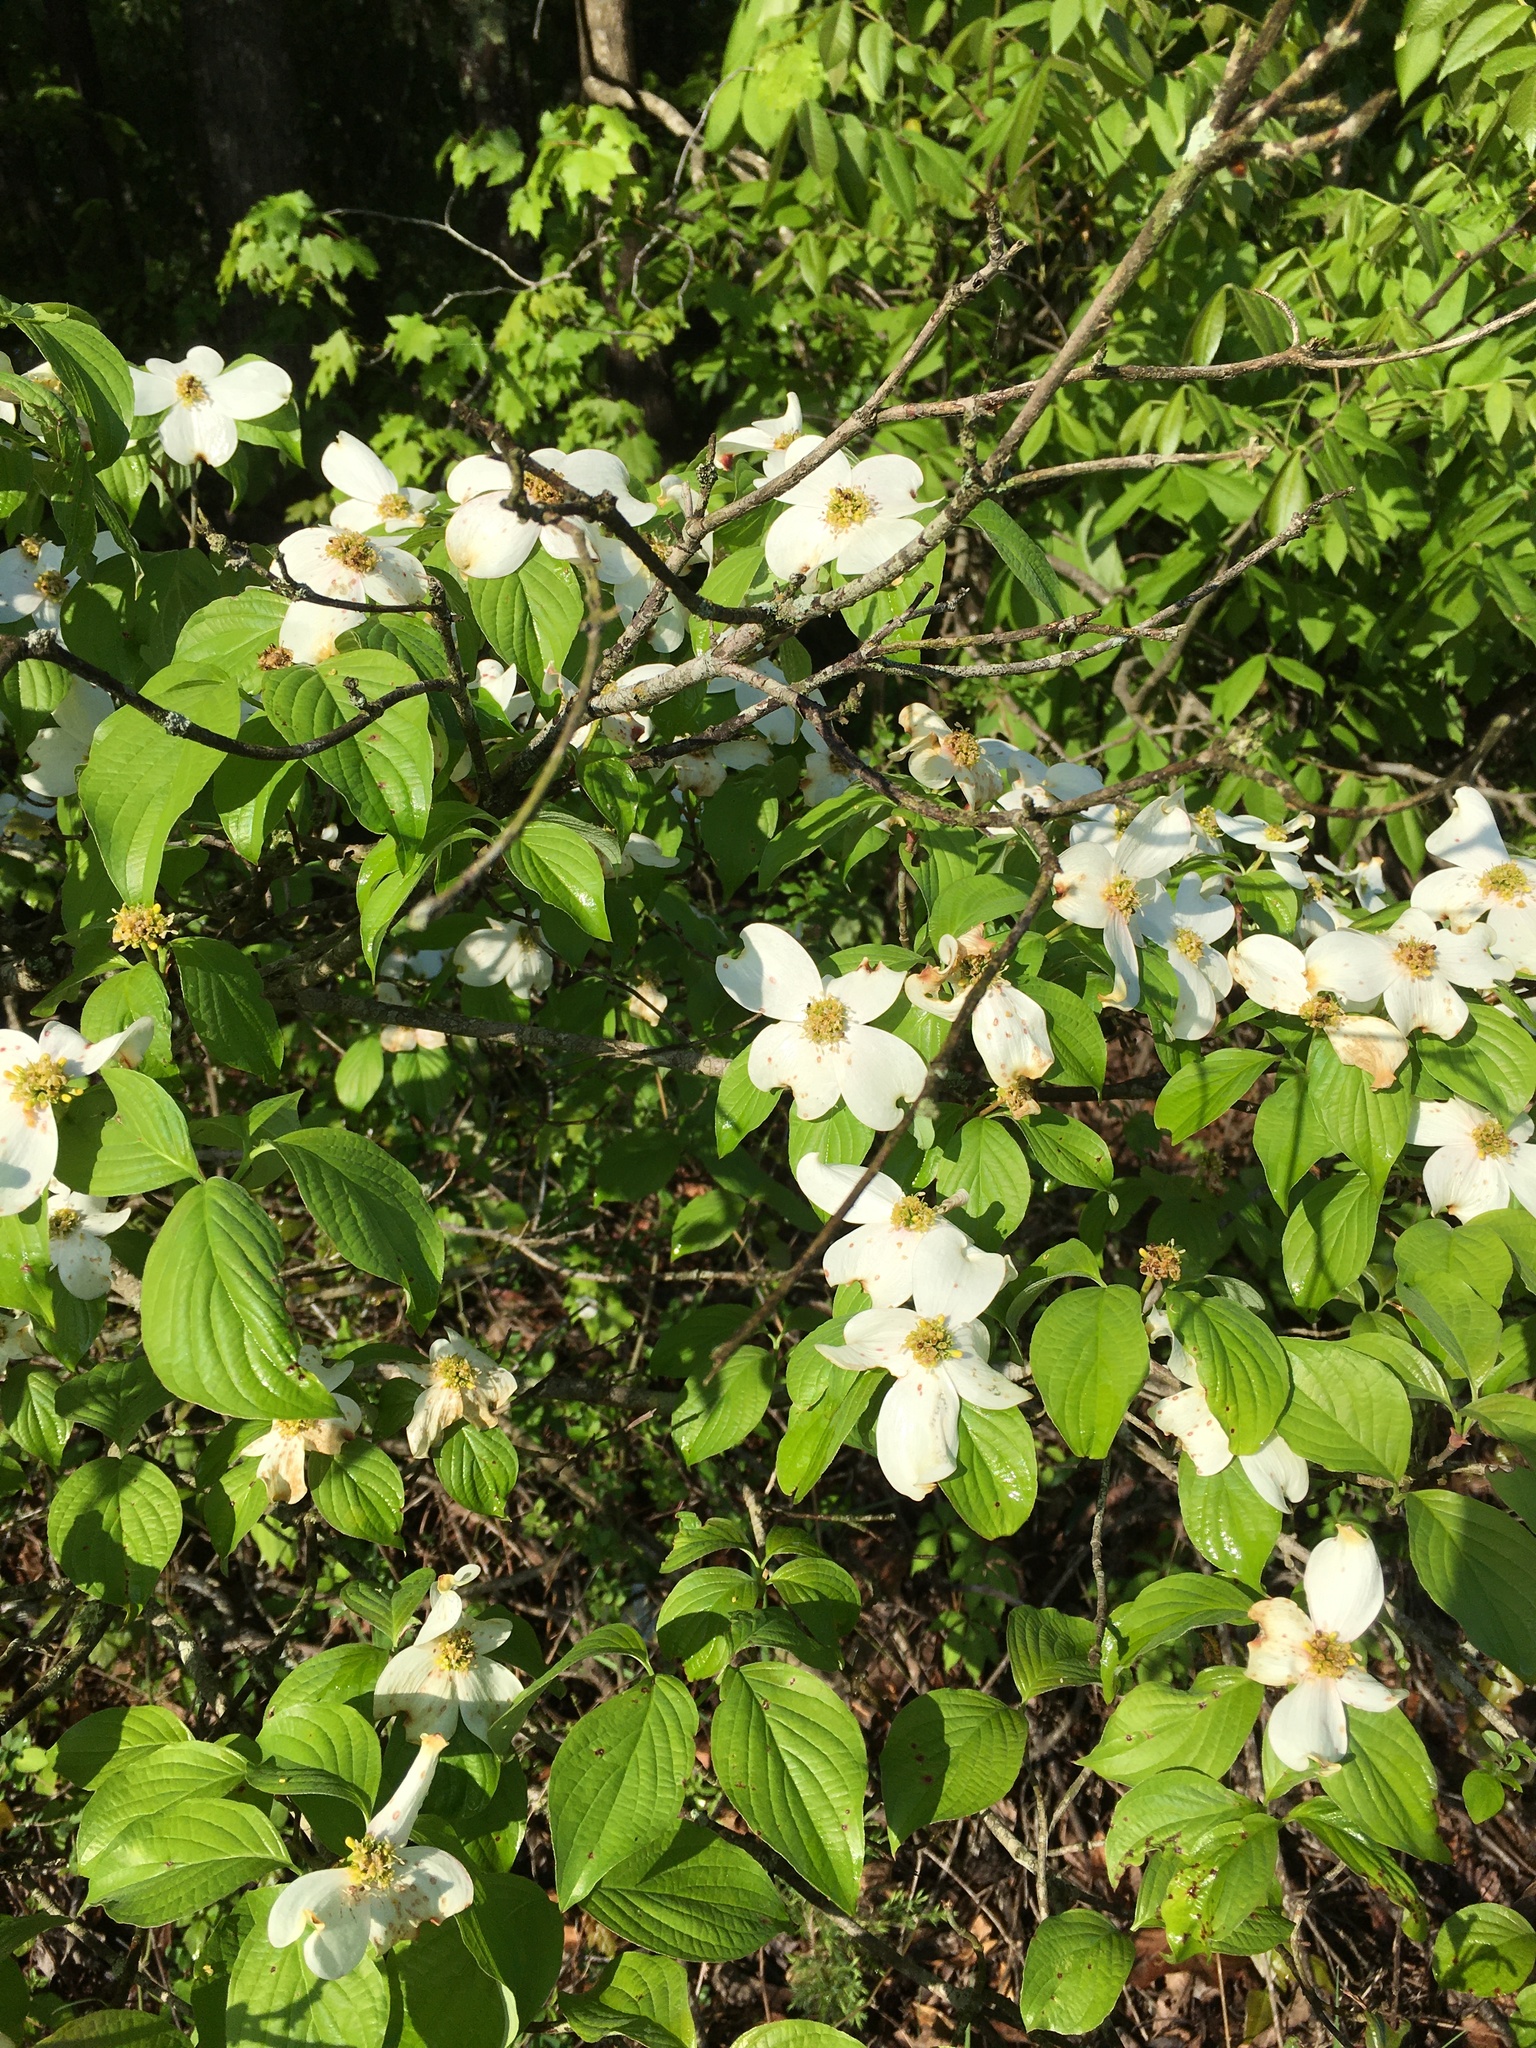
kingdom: Plantae
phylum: Tracheophyta
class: Magnoliopsida
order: Cornales
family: Cornaceae
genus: Cornus
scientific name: Cornus florida
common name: Flowering dogwood
